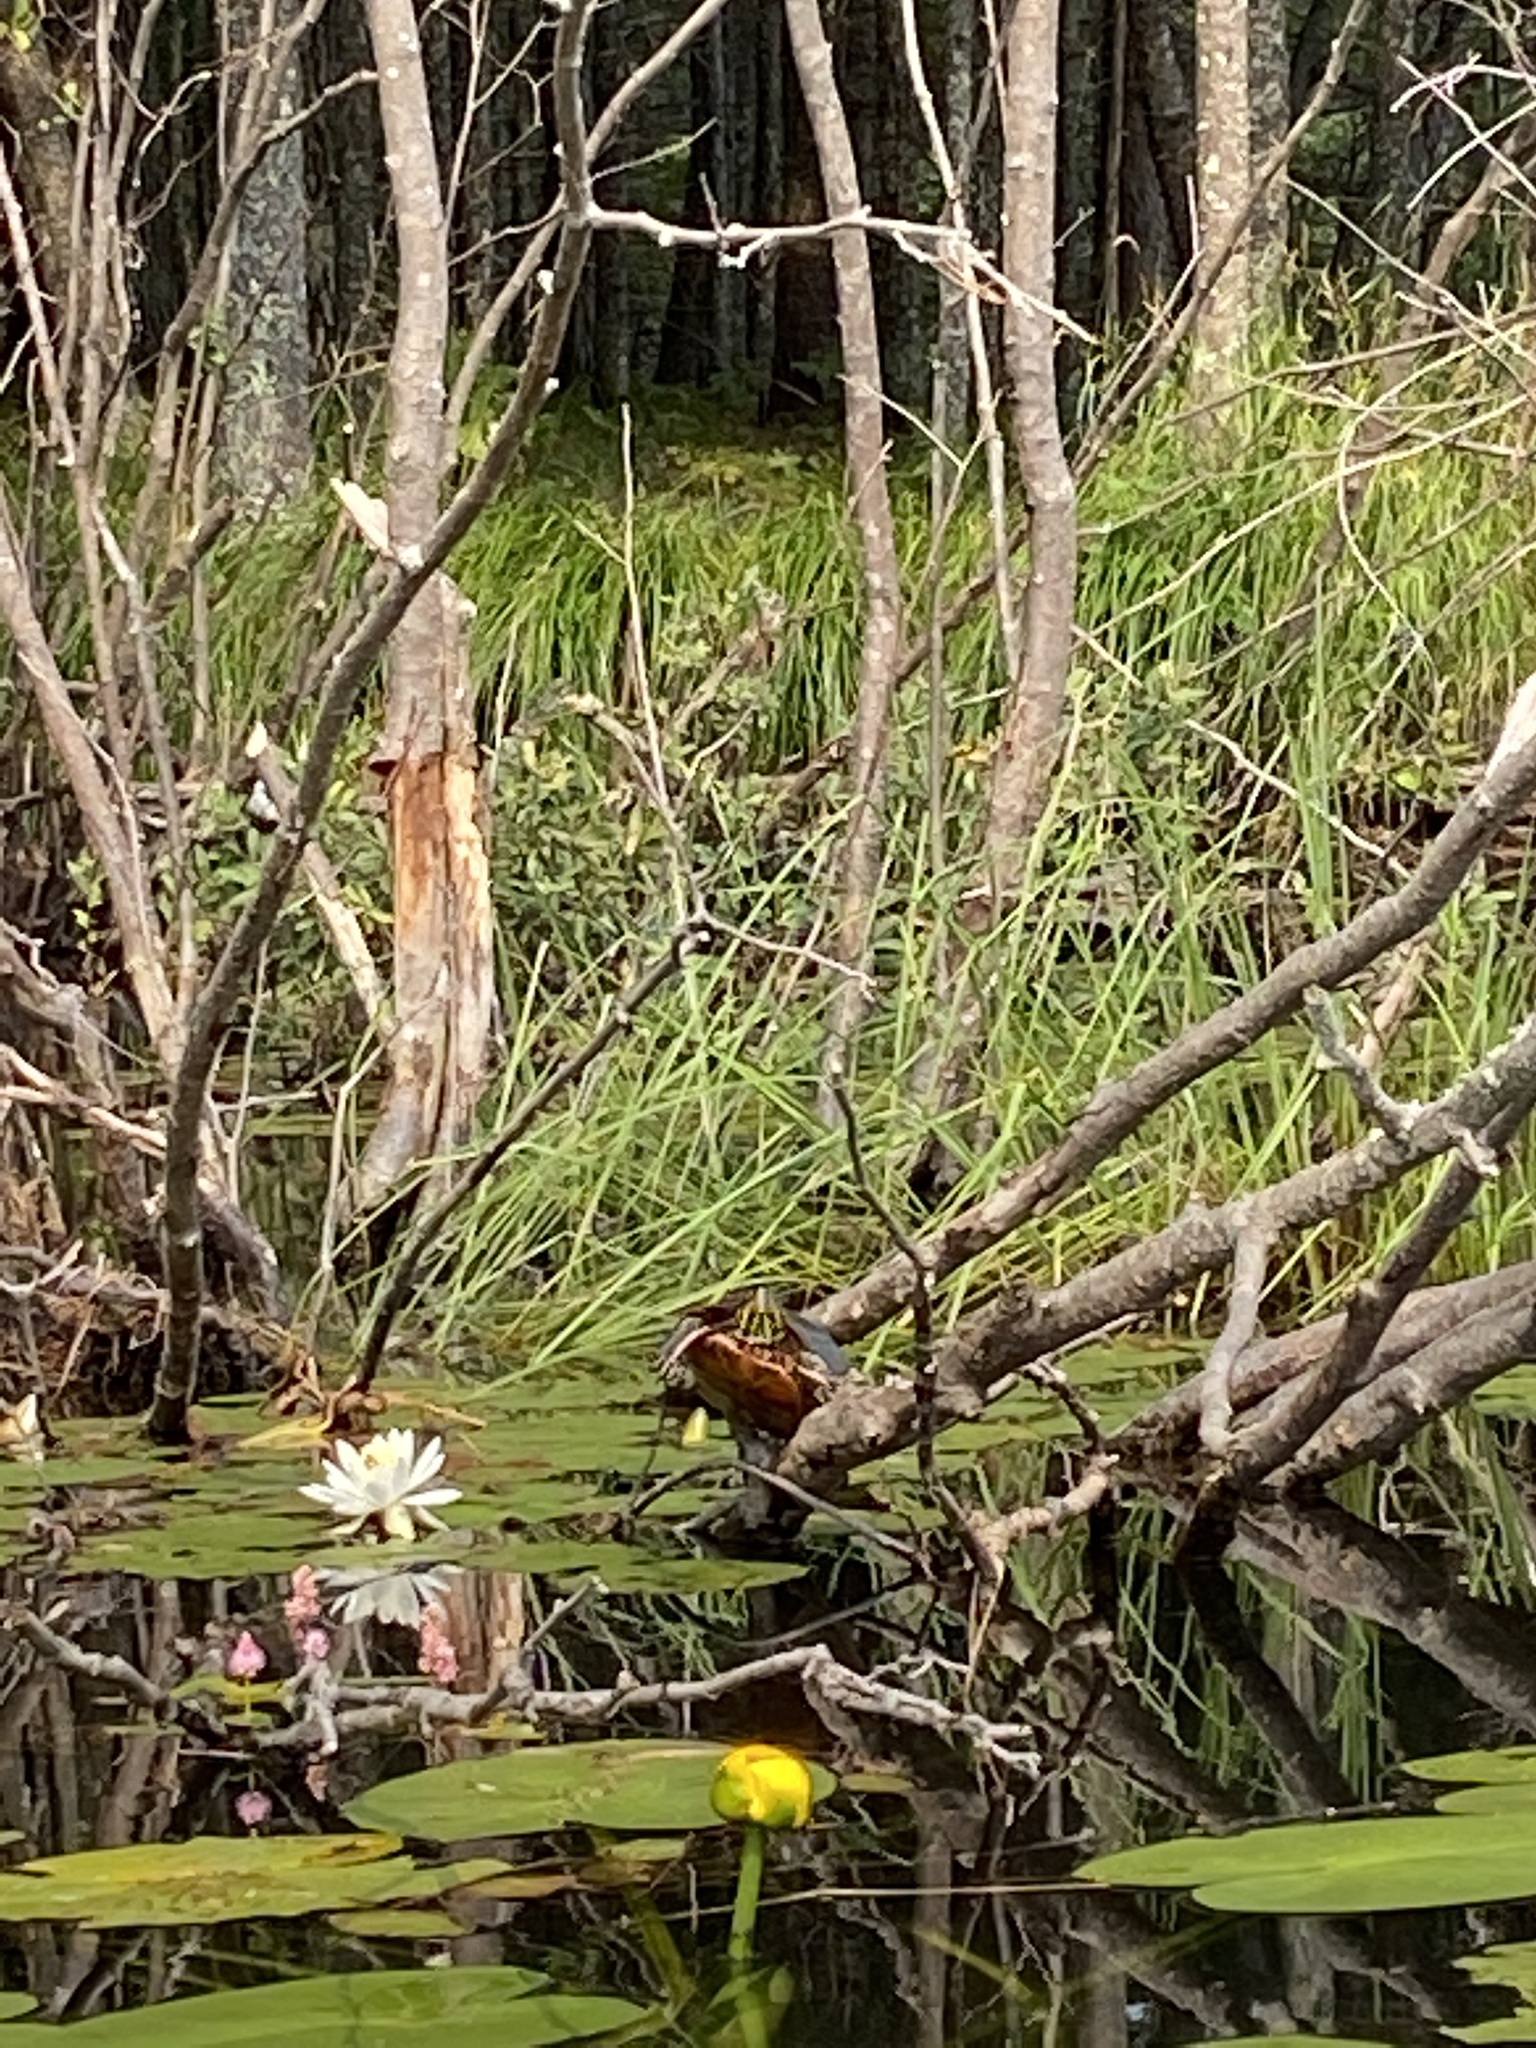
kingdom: Animalia
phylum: Chordata
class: Testudines
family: Emydidae
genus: Chrysemys
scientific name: Chrysemys picta
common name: Painted turtle
